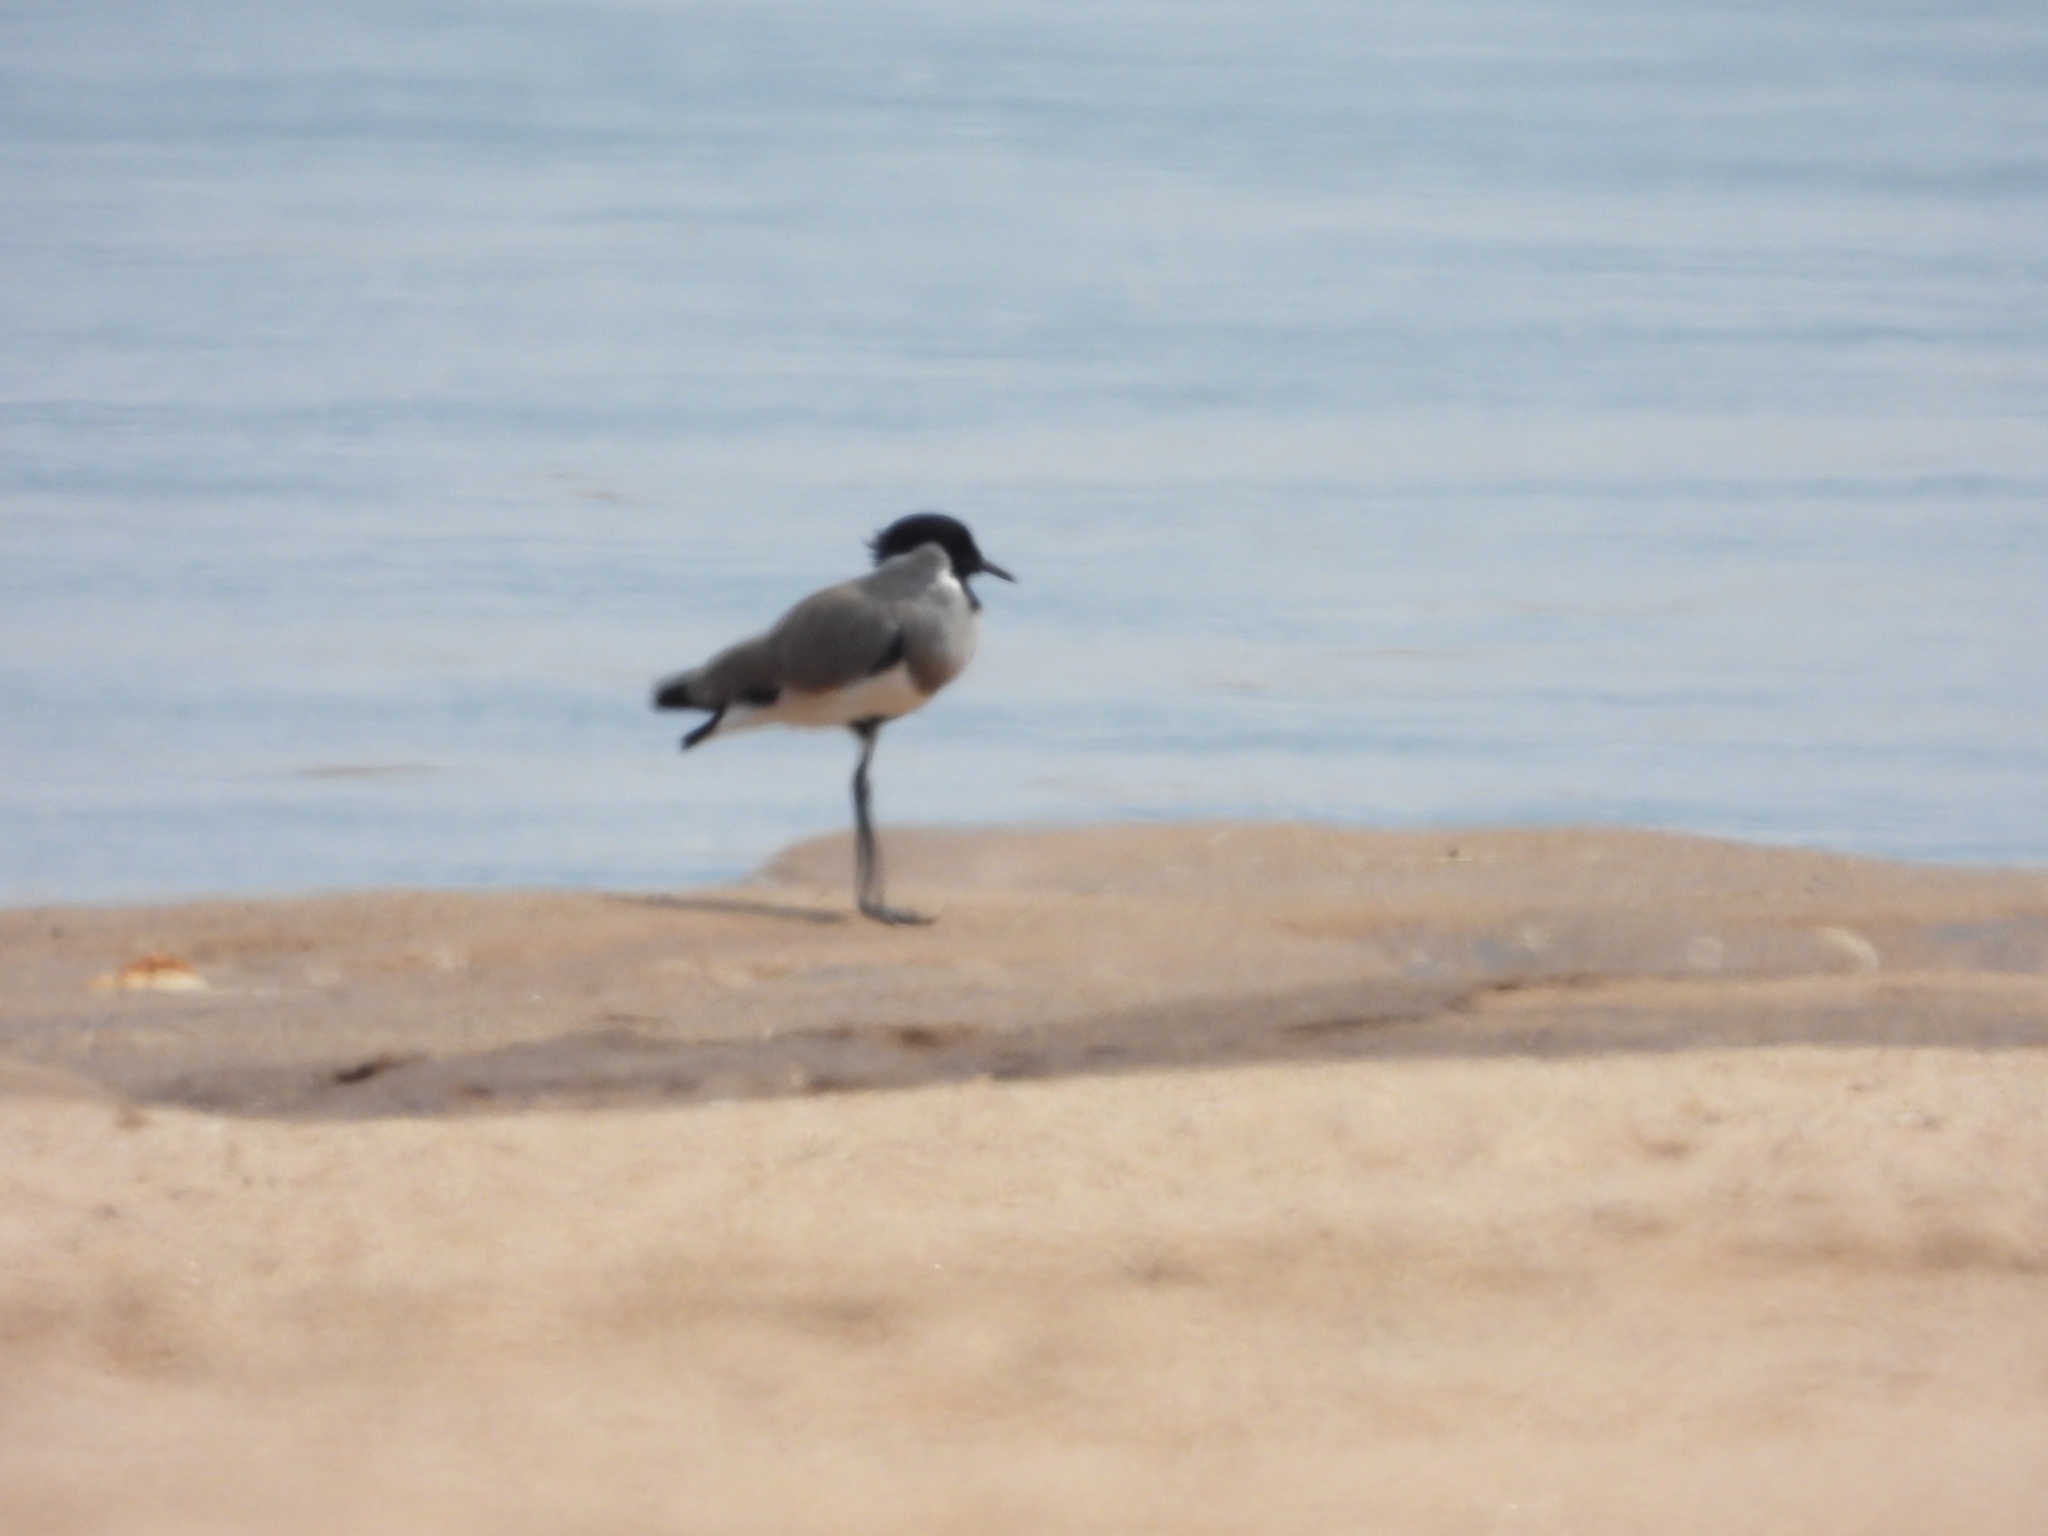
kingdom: Animalia
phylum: Chordata
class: Aves
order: Charadriiformes
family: Charadriidae
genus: Vanellus
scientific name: Vanellus duvaucelii
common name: River lapwing
